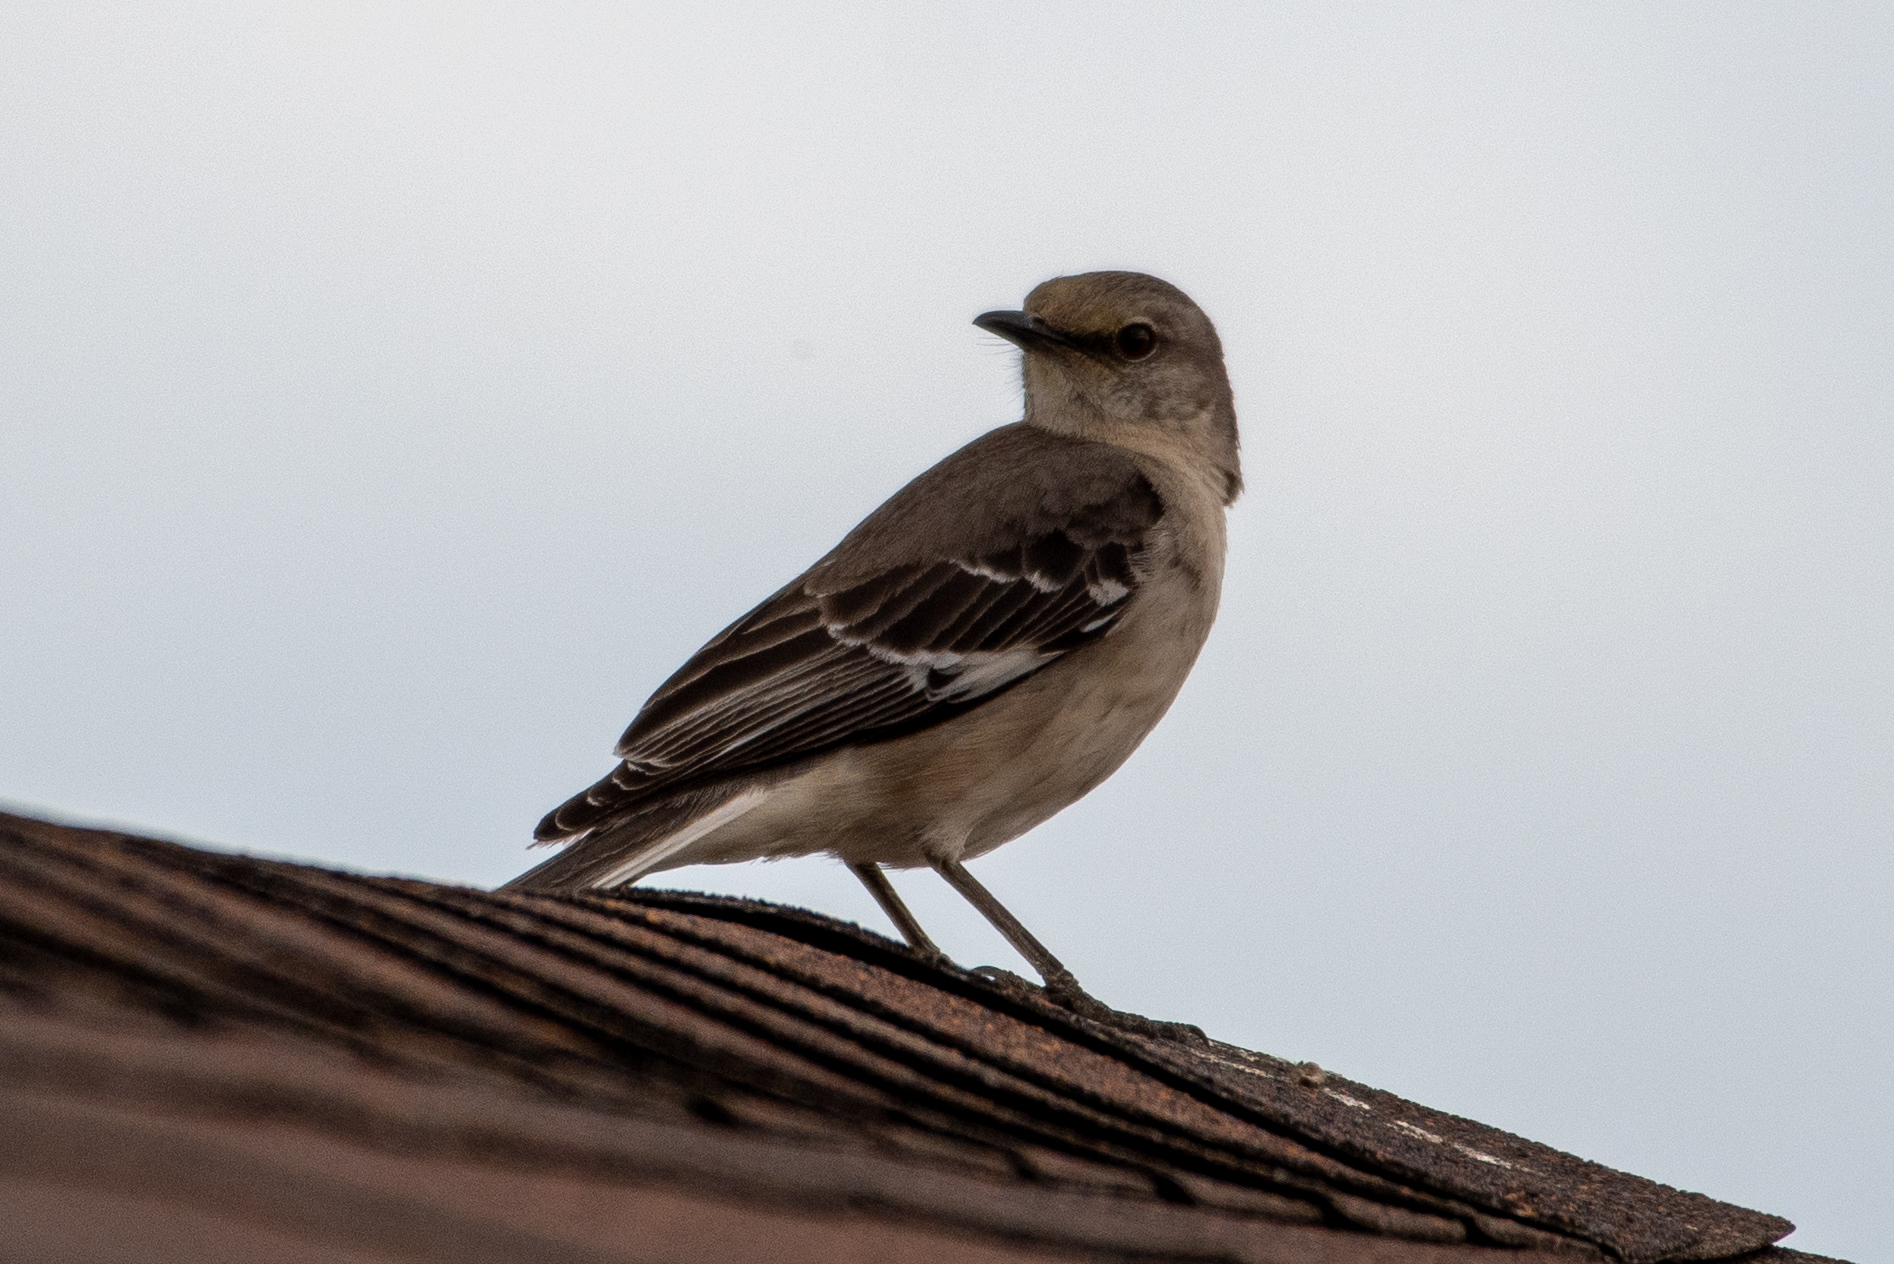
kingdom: Animalia
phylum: Chordata
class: Aves
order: Passeriformes
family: Mimidae
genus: Mimus
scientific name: Mimus polyglottos
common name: Northern mockingbird
